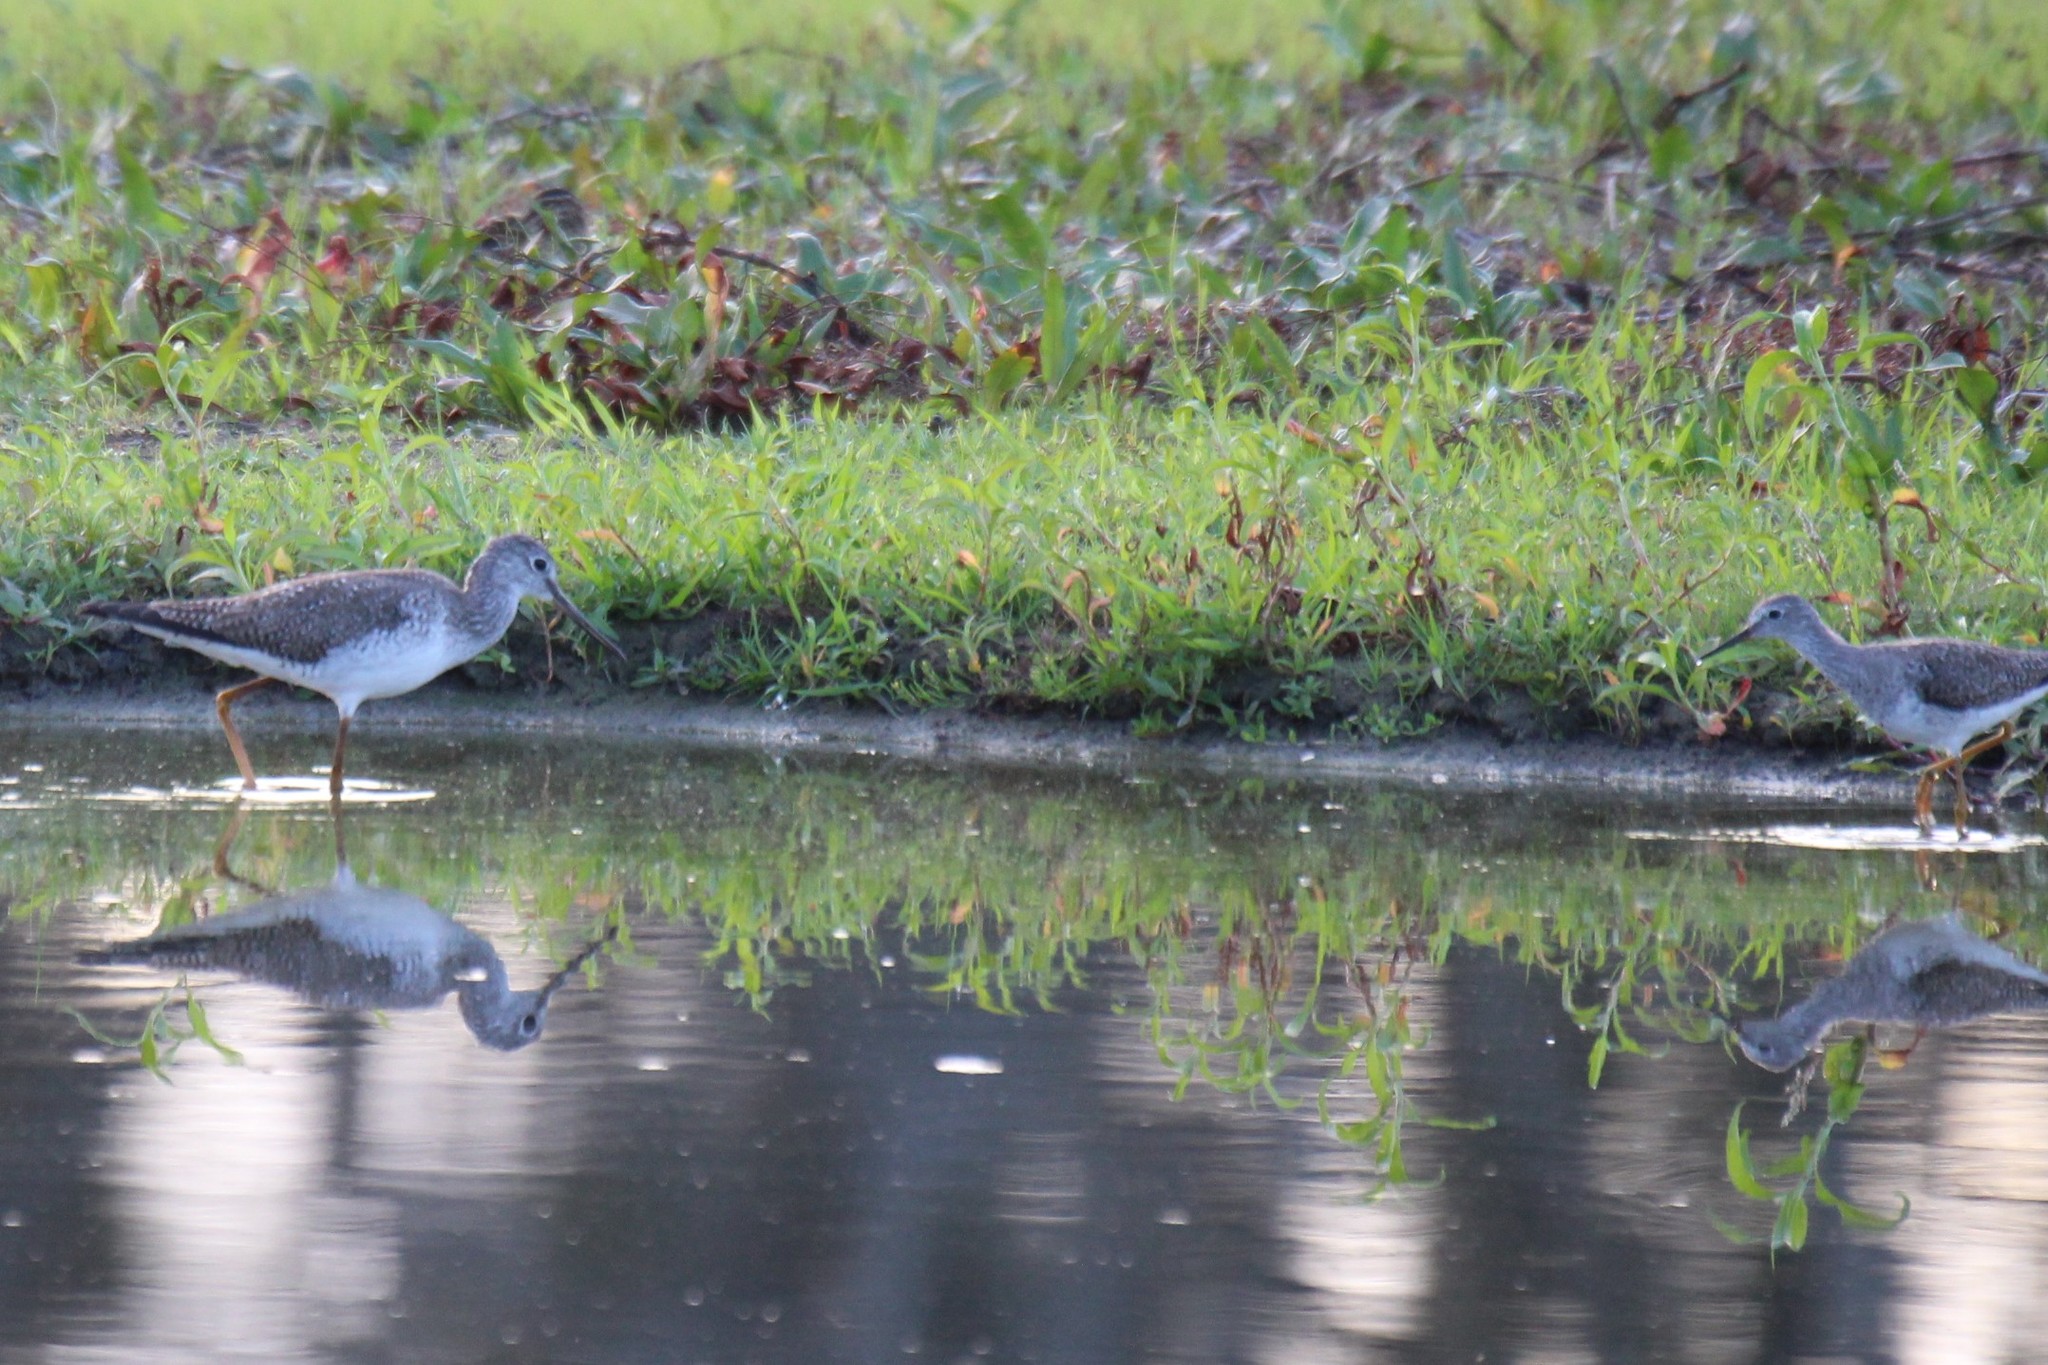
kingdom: Animalia
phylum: Chordata
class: Aves
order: Charadriiformes
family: Scolopacidae
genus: Tringa
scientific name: Tringa melanoleuca
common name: Greater yellowlegs
